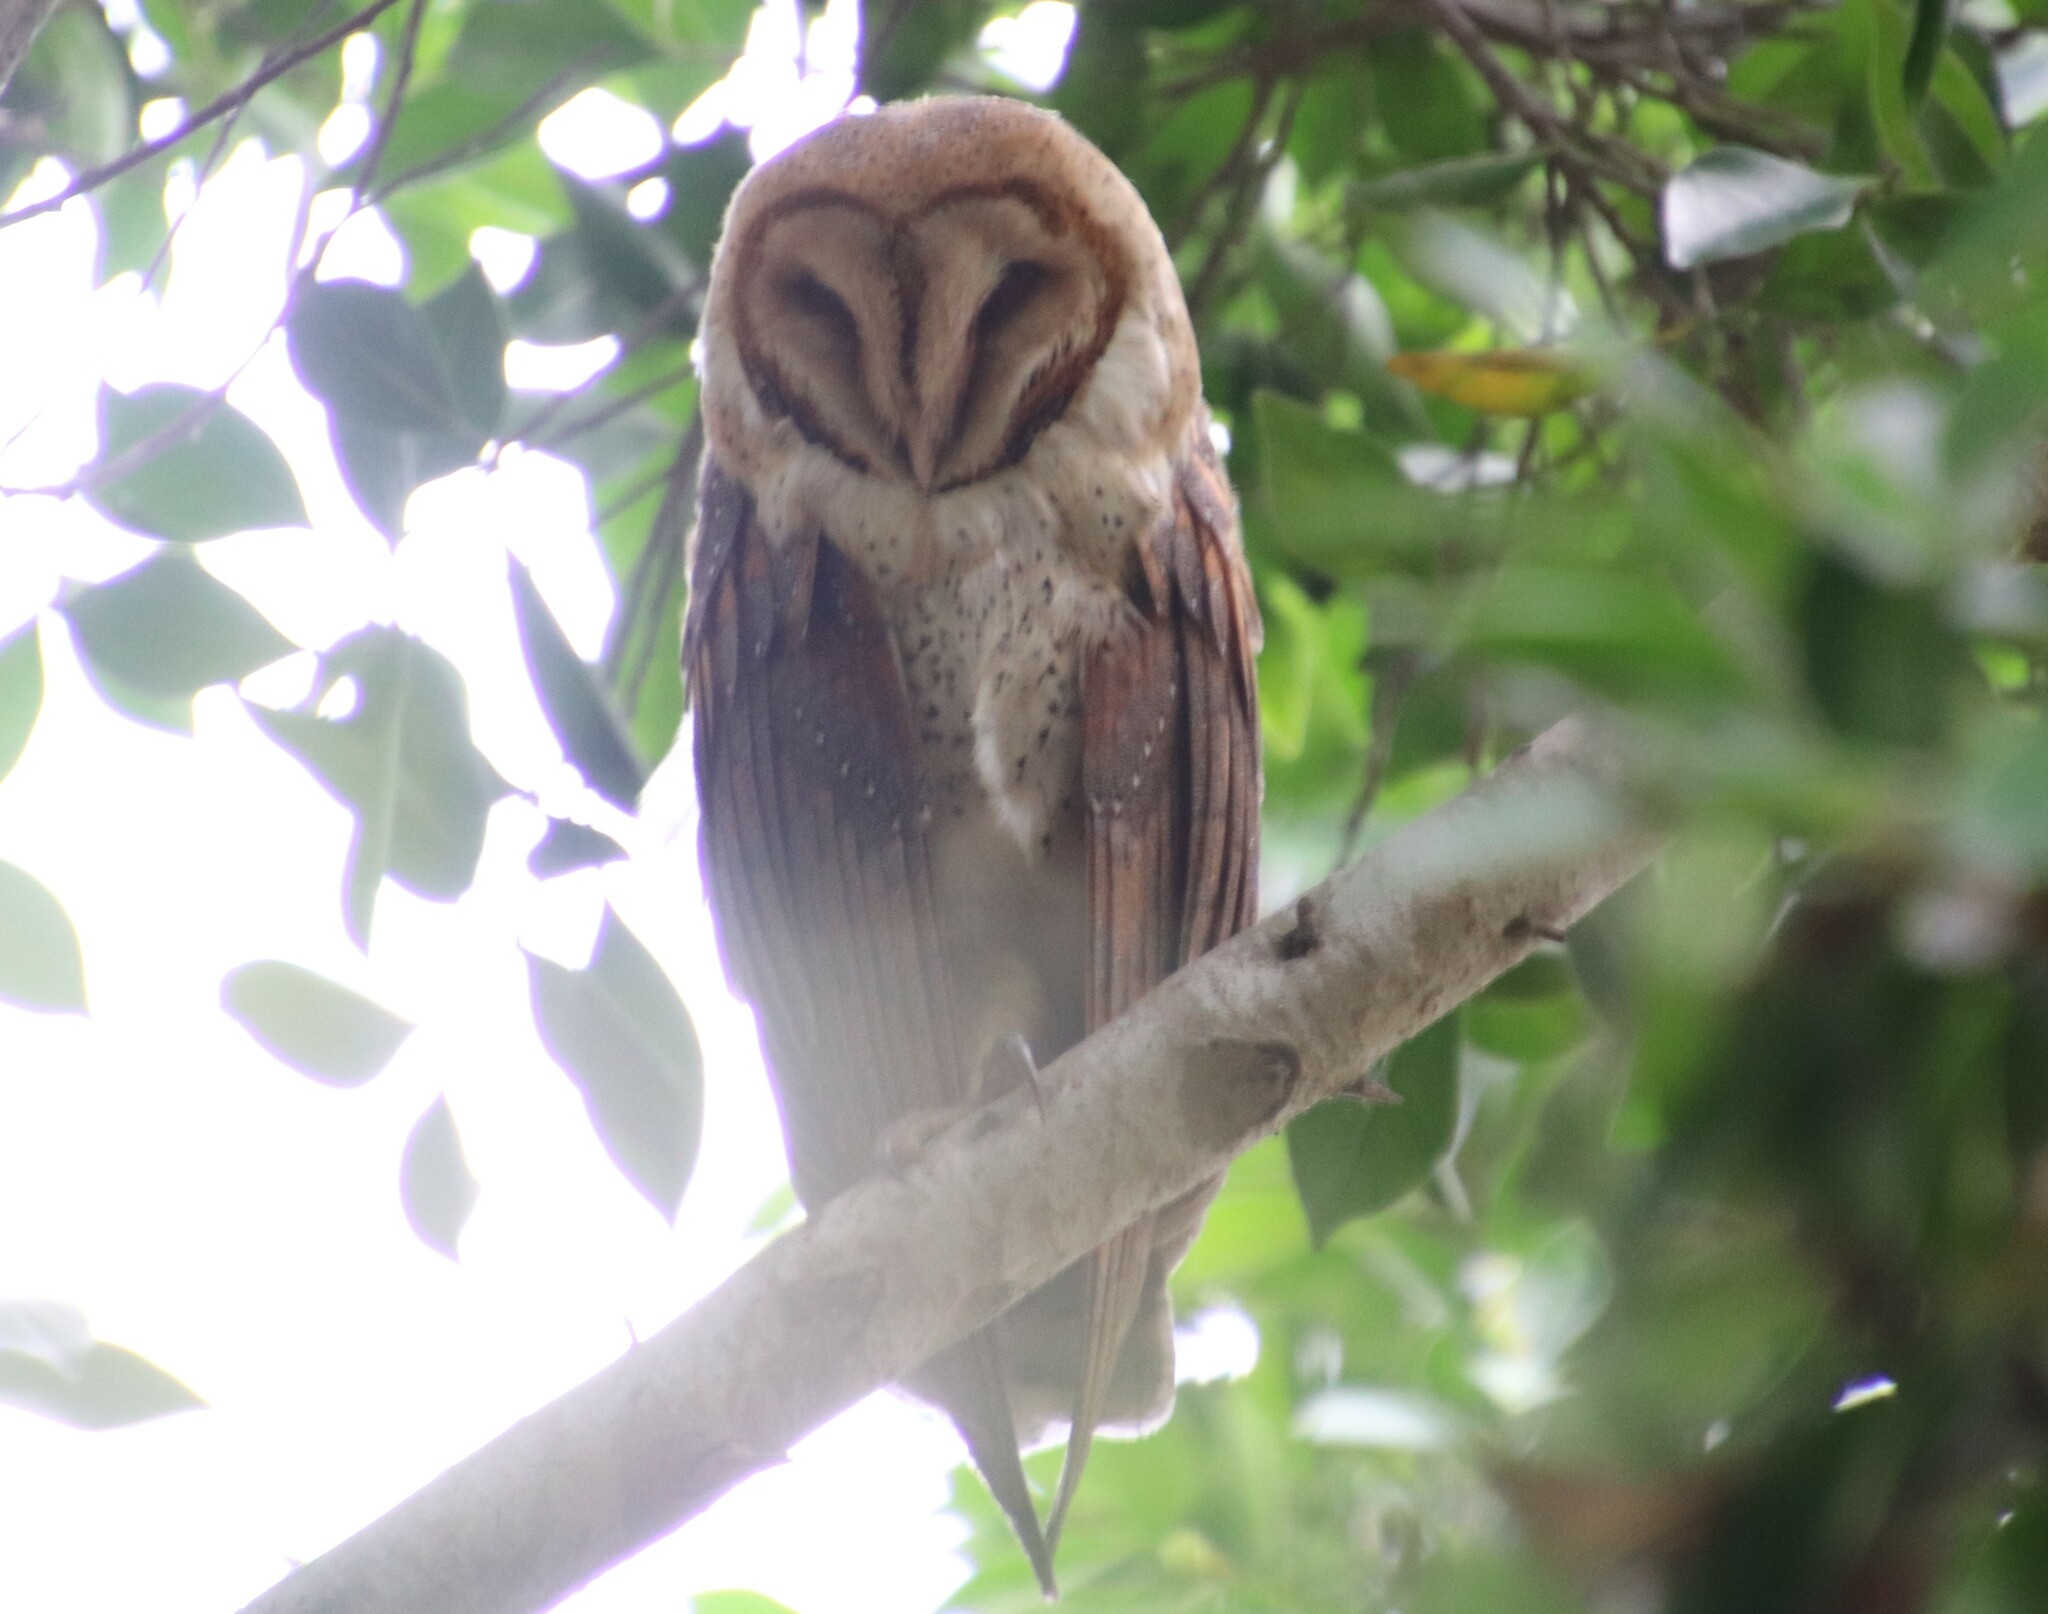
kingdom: Animalia
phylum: Chordata
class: Aves
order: Strigiformes
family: Tytonidae
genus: Tyto
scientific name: Tyto alba
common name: Barn owl
